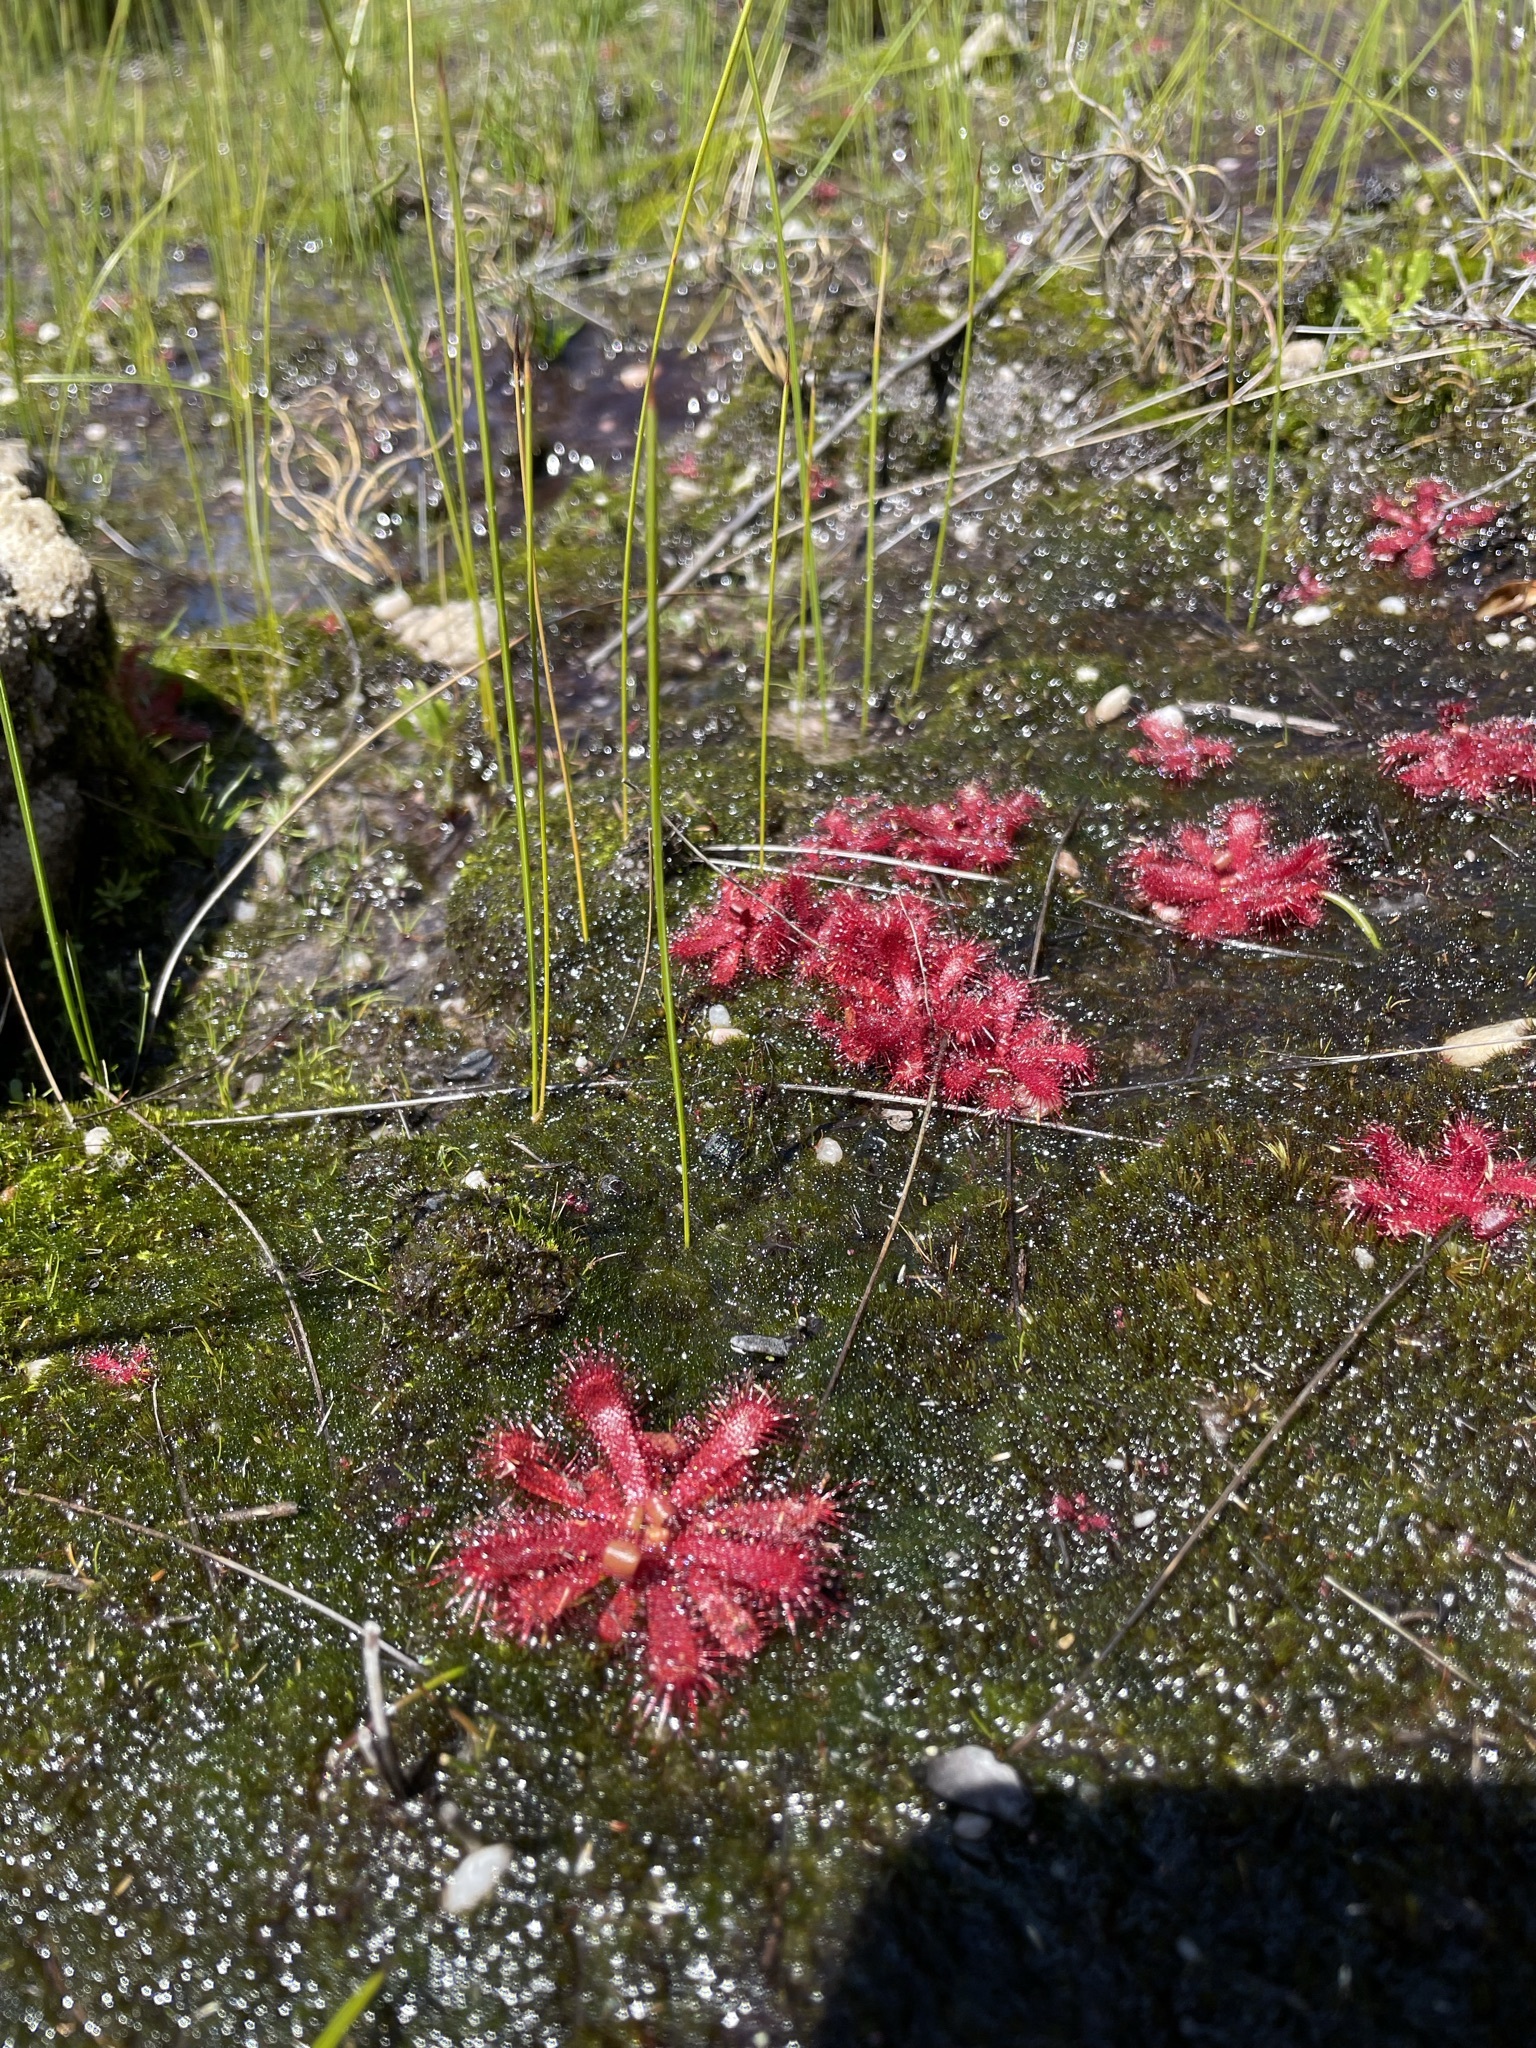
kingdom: Plantae
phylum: Tracheophyta
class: Magnoliopsida
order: Caryophyllales
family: Droseraceae
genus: Drosera
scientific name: Drosera trinervia
